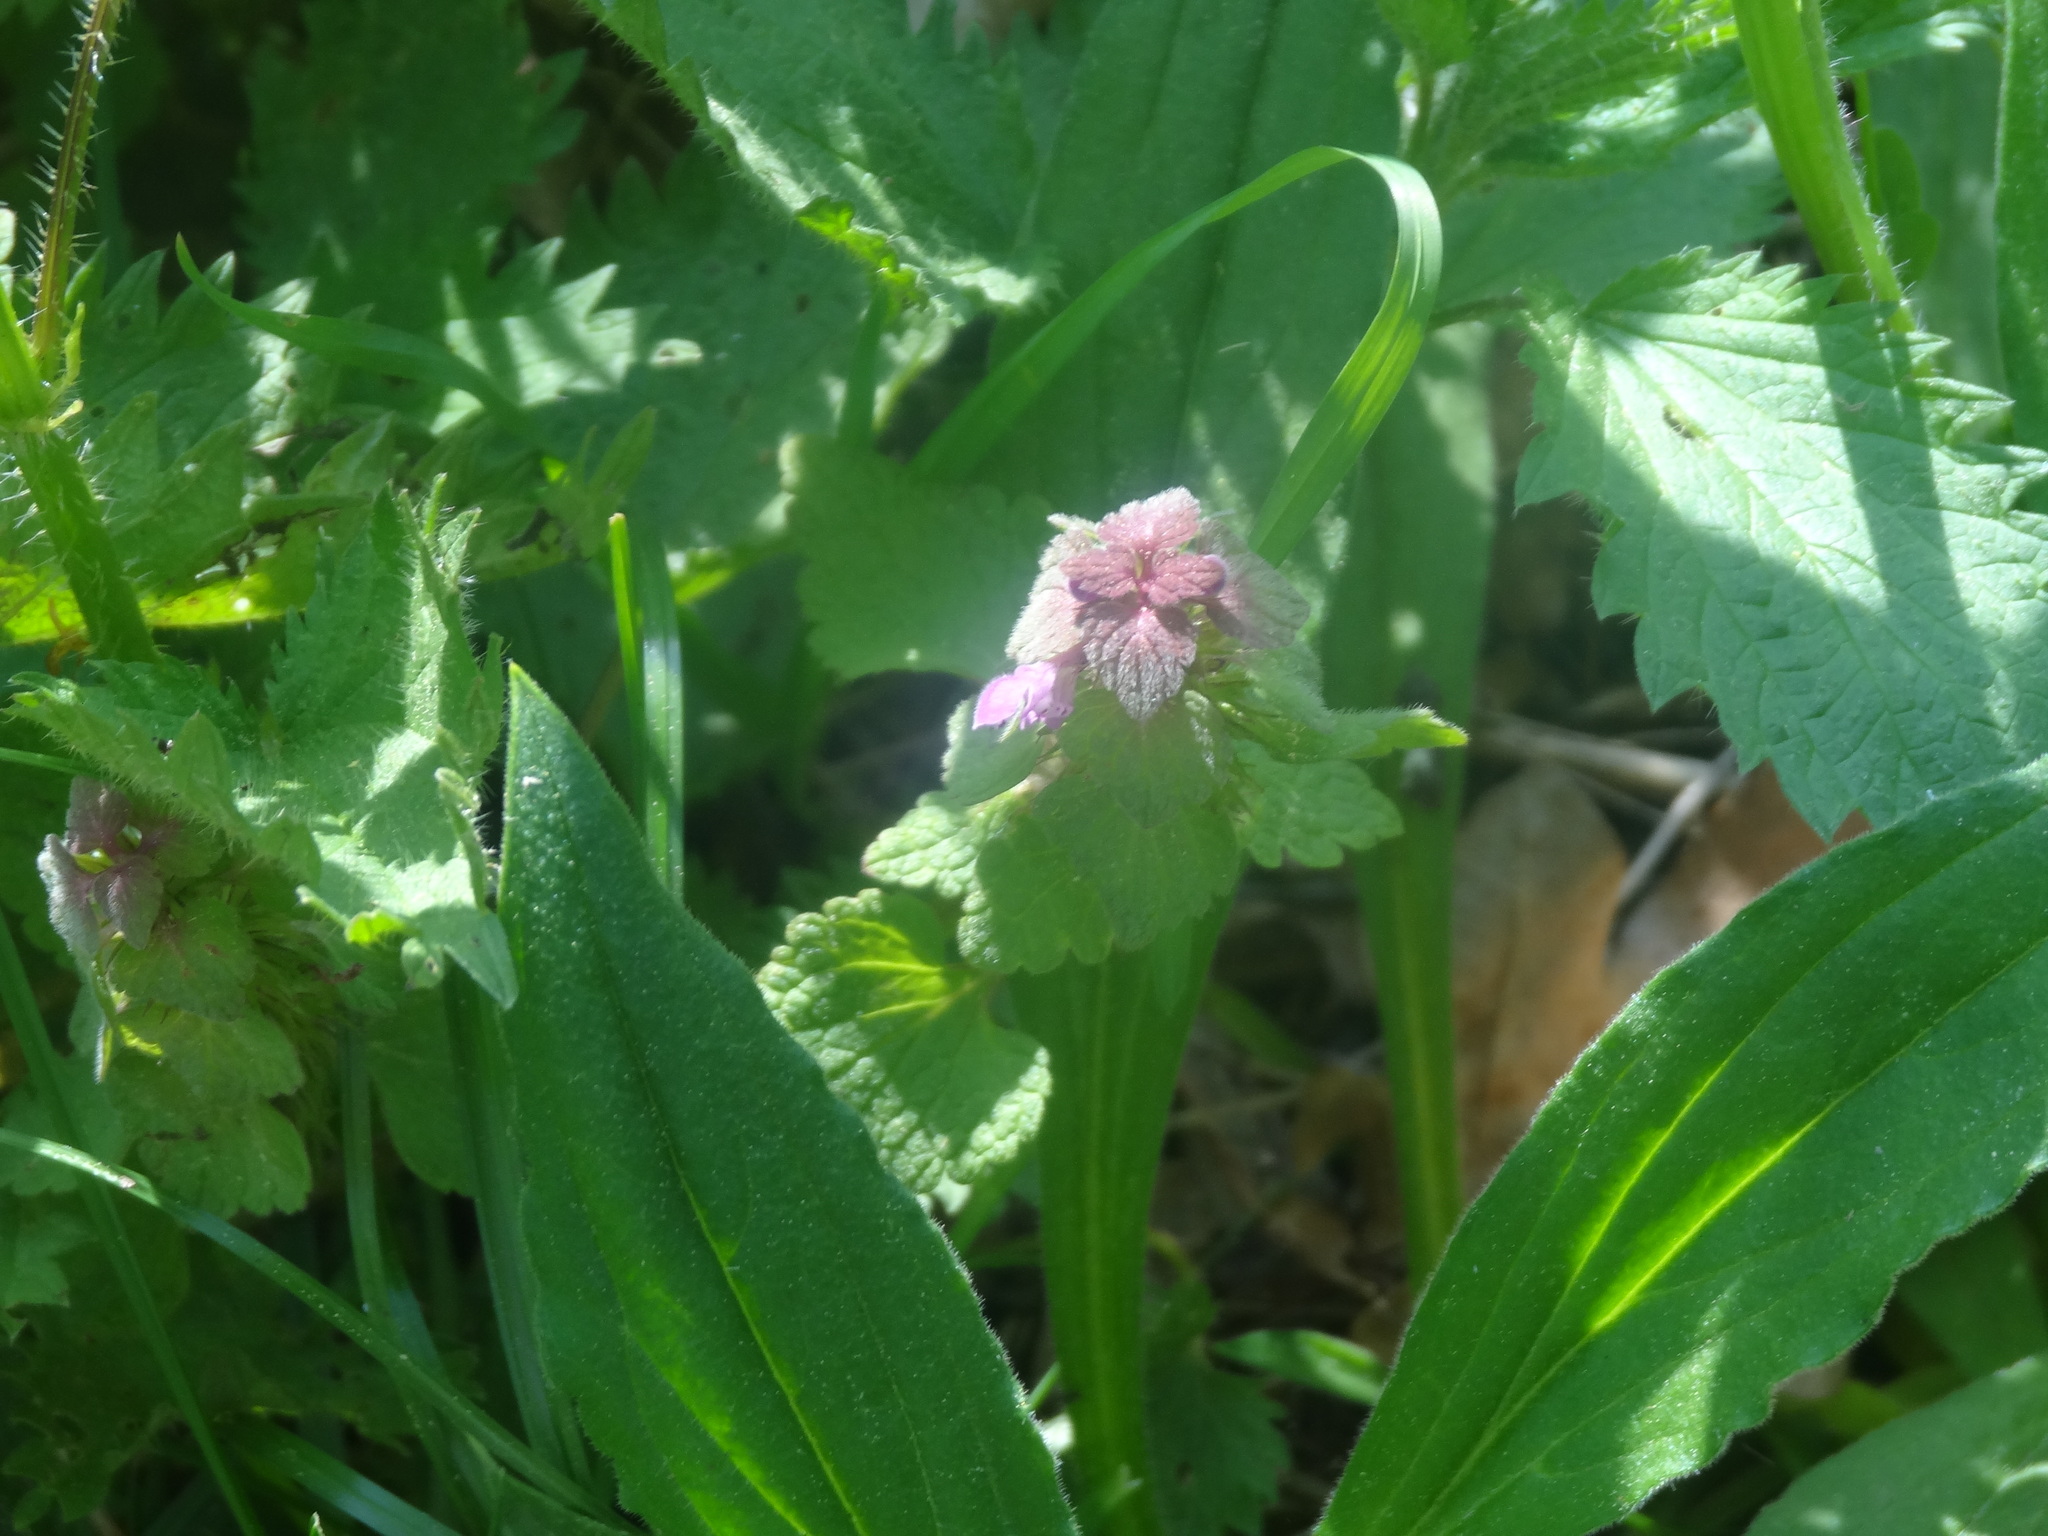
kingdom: Plantae
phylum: Tracheophyta
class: Magnoliopsida
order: Lamiales
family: Lamiaceae
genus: Lamium
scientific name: Lamium purpureum
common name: Red dead-nettle
